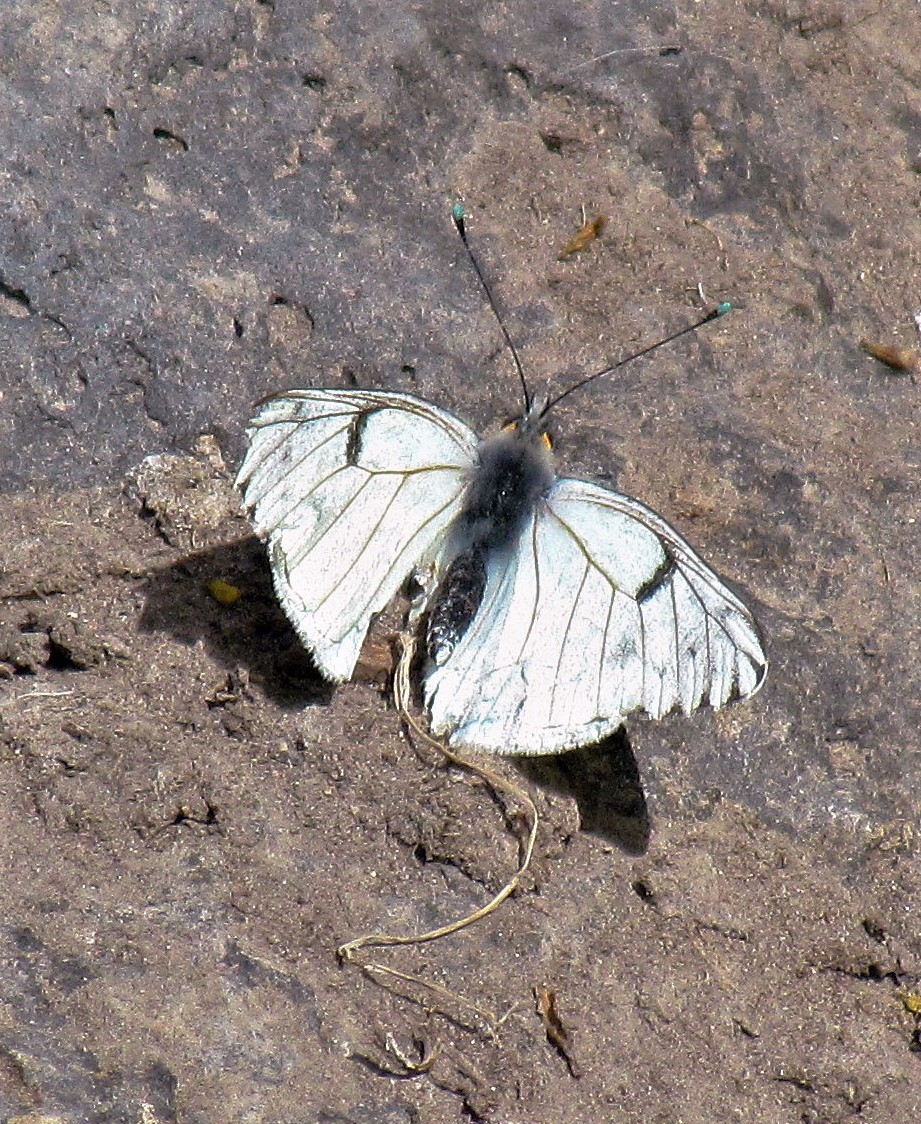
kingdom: Animalia
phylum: Arthropoda
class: Insecta
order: Lepidoptera
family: Pieridae
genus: Tatochila
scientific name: Tatochila mercedis
